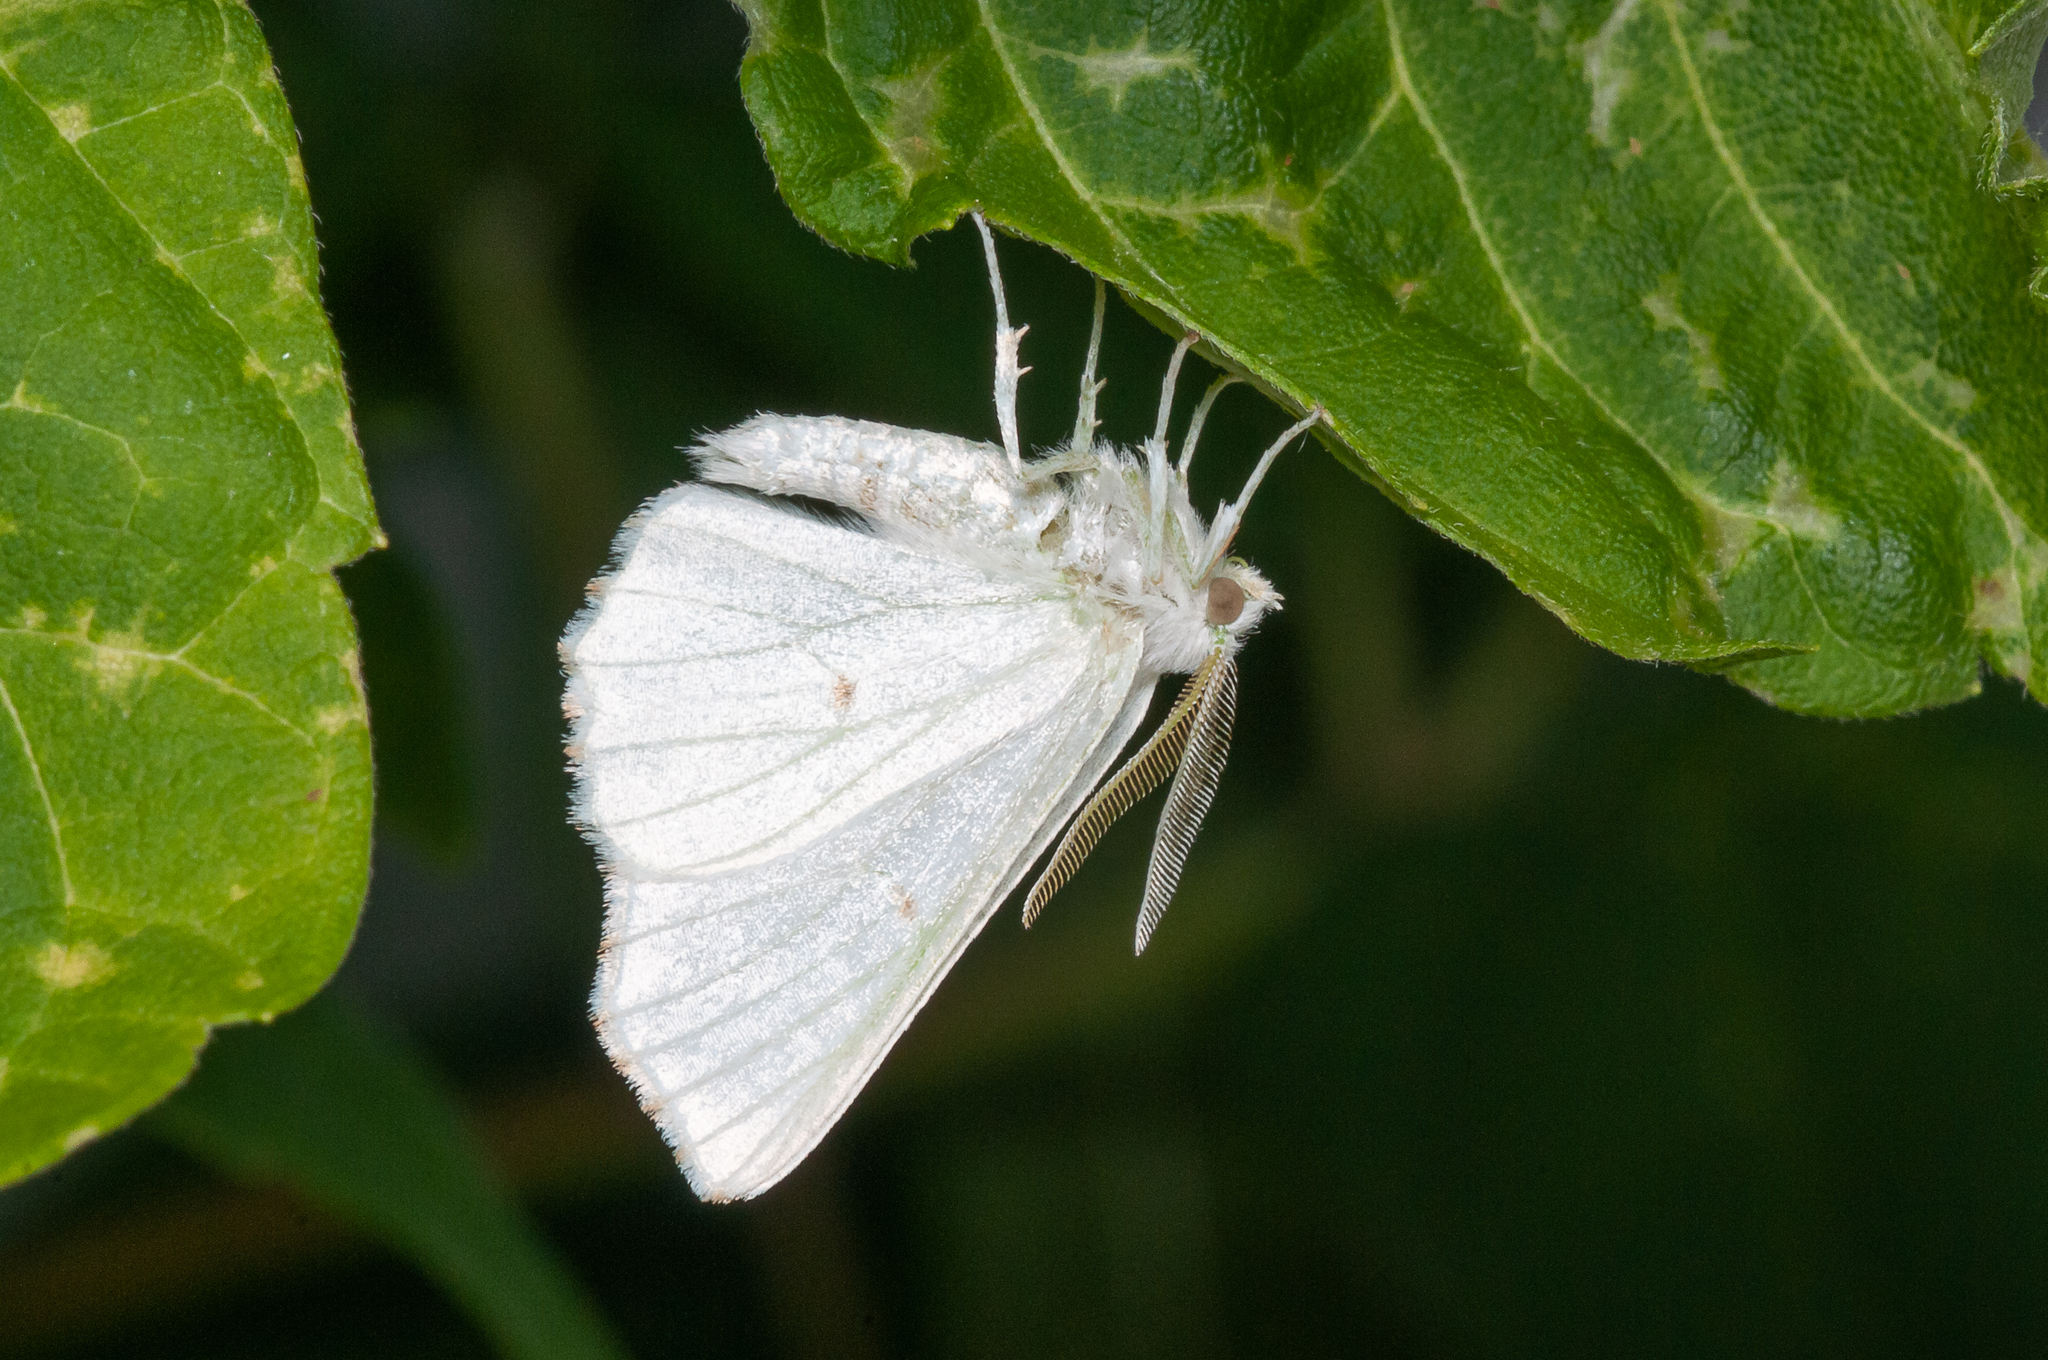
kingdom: Animalia
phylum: Arthropoda
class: Insecta
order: Lepidoptera
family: Geometridae
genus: Ennomos
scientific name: Ennomos subsignaria
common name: Elm spanworm
